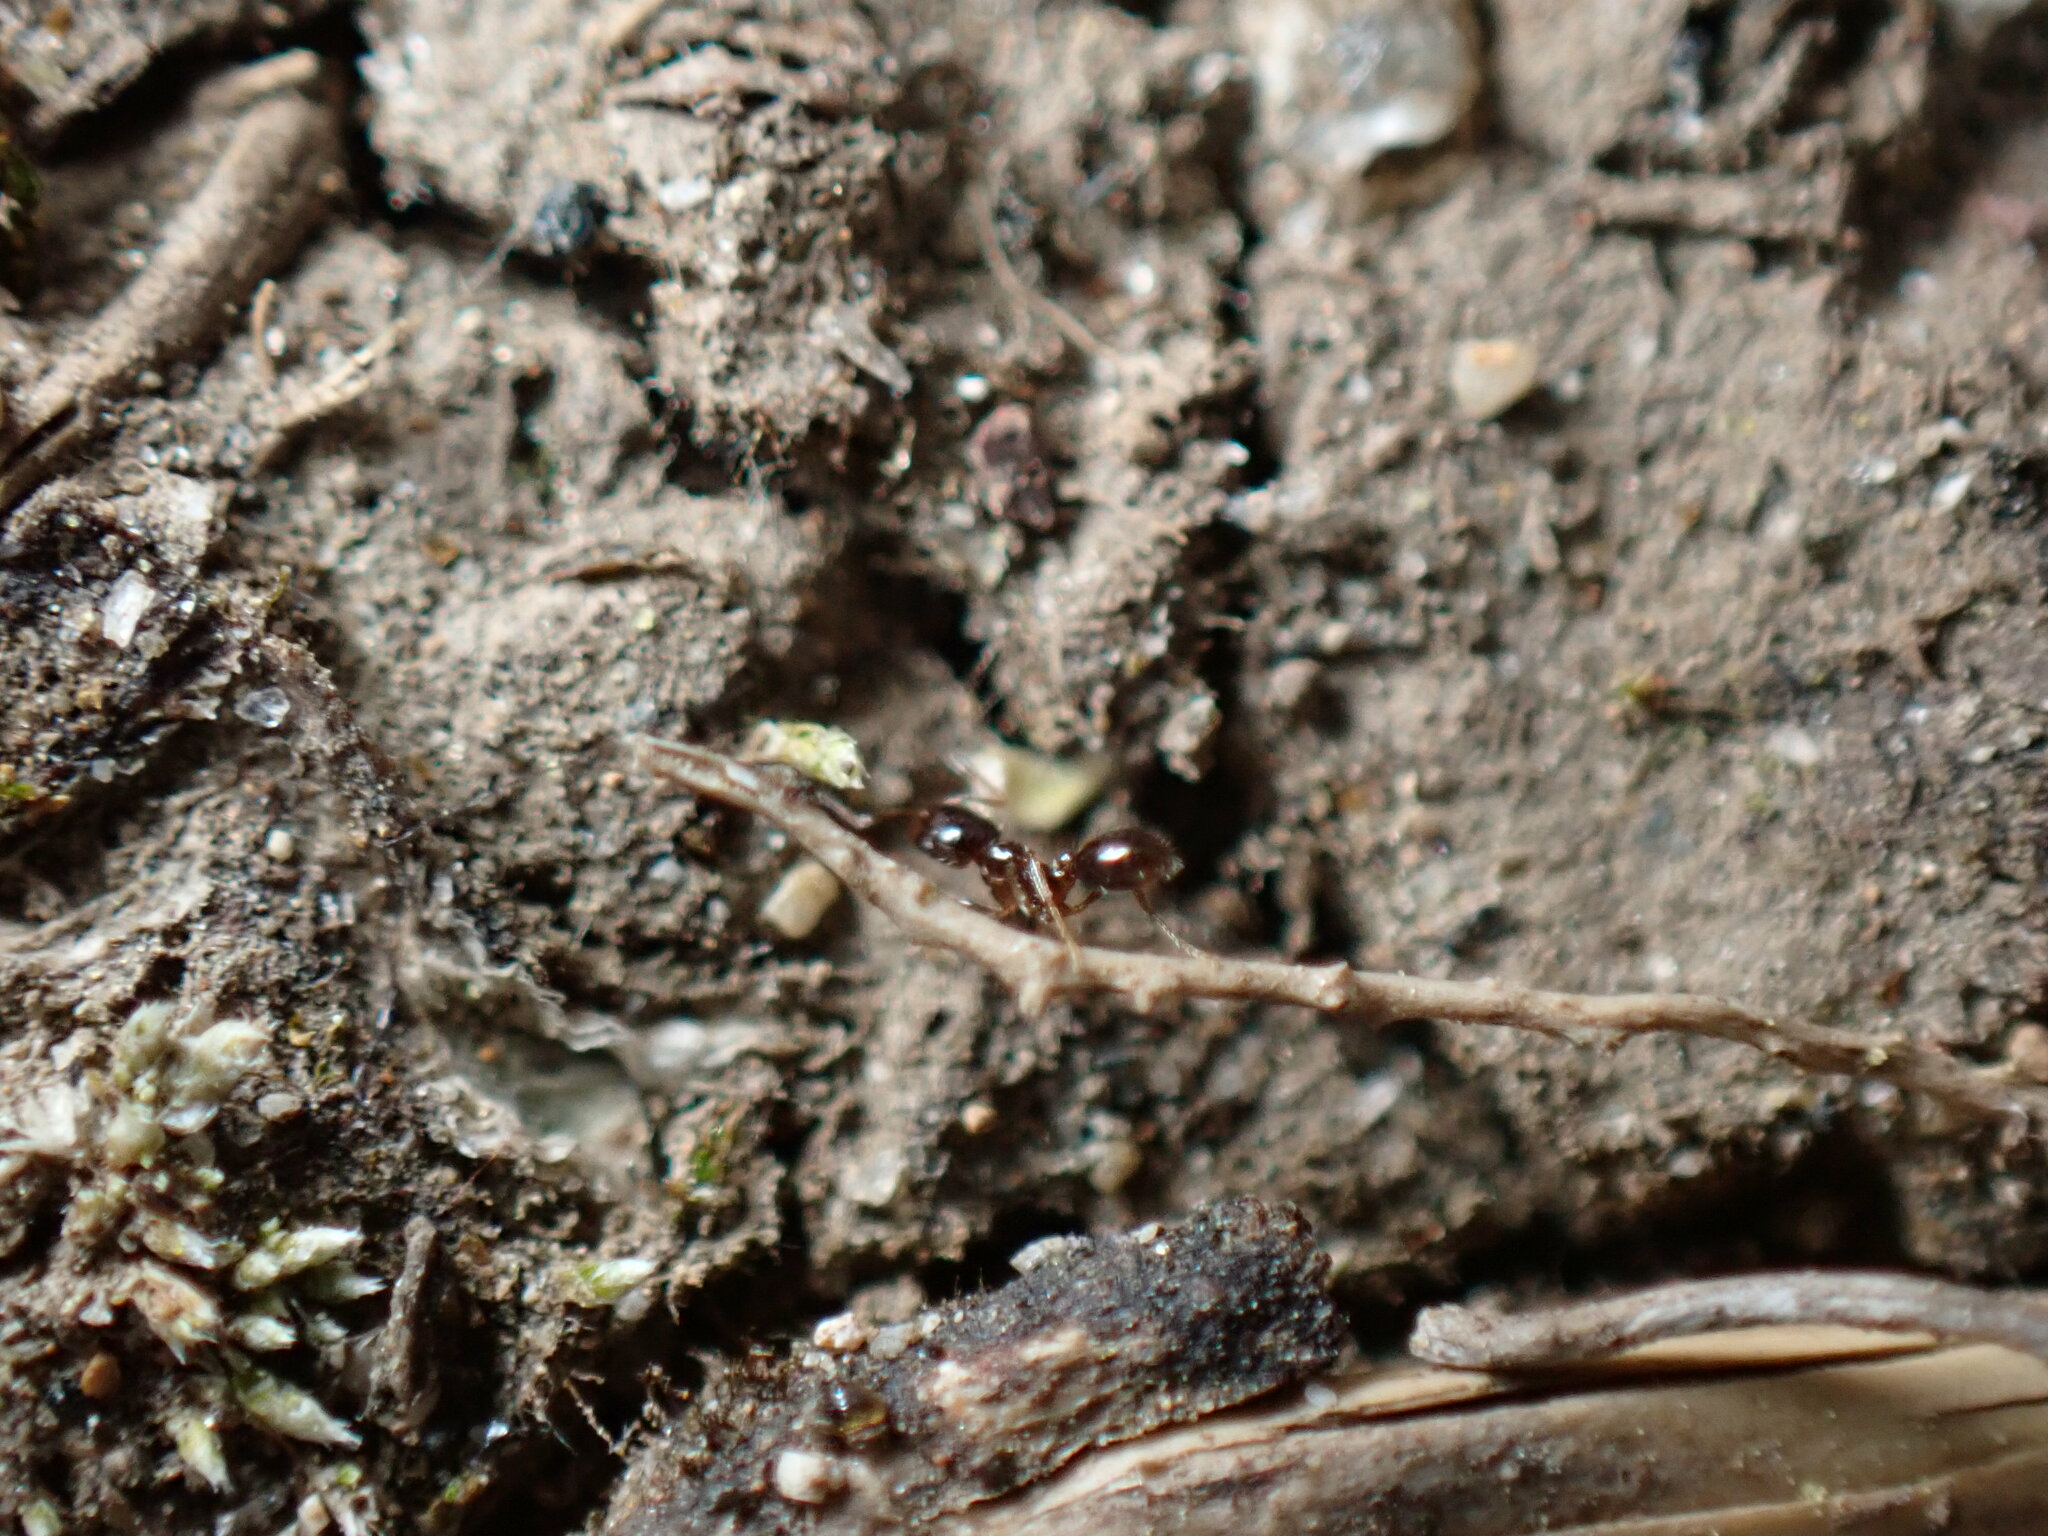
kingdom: Animalia
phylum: Arthropoda
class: Insecta
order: Hymenoptera
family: Formicidae
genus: Monomorium
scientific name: Monomorium chinense
